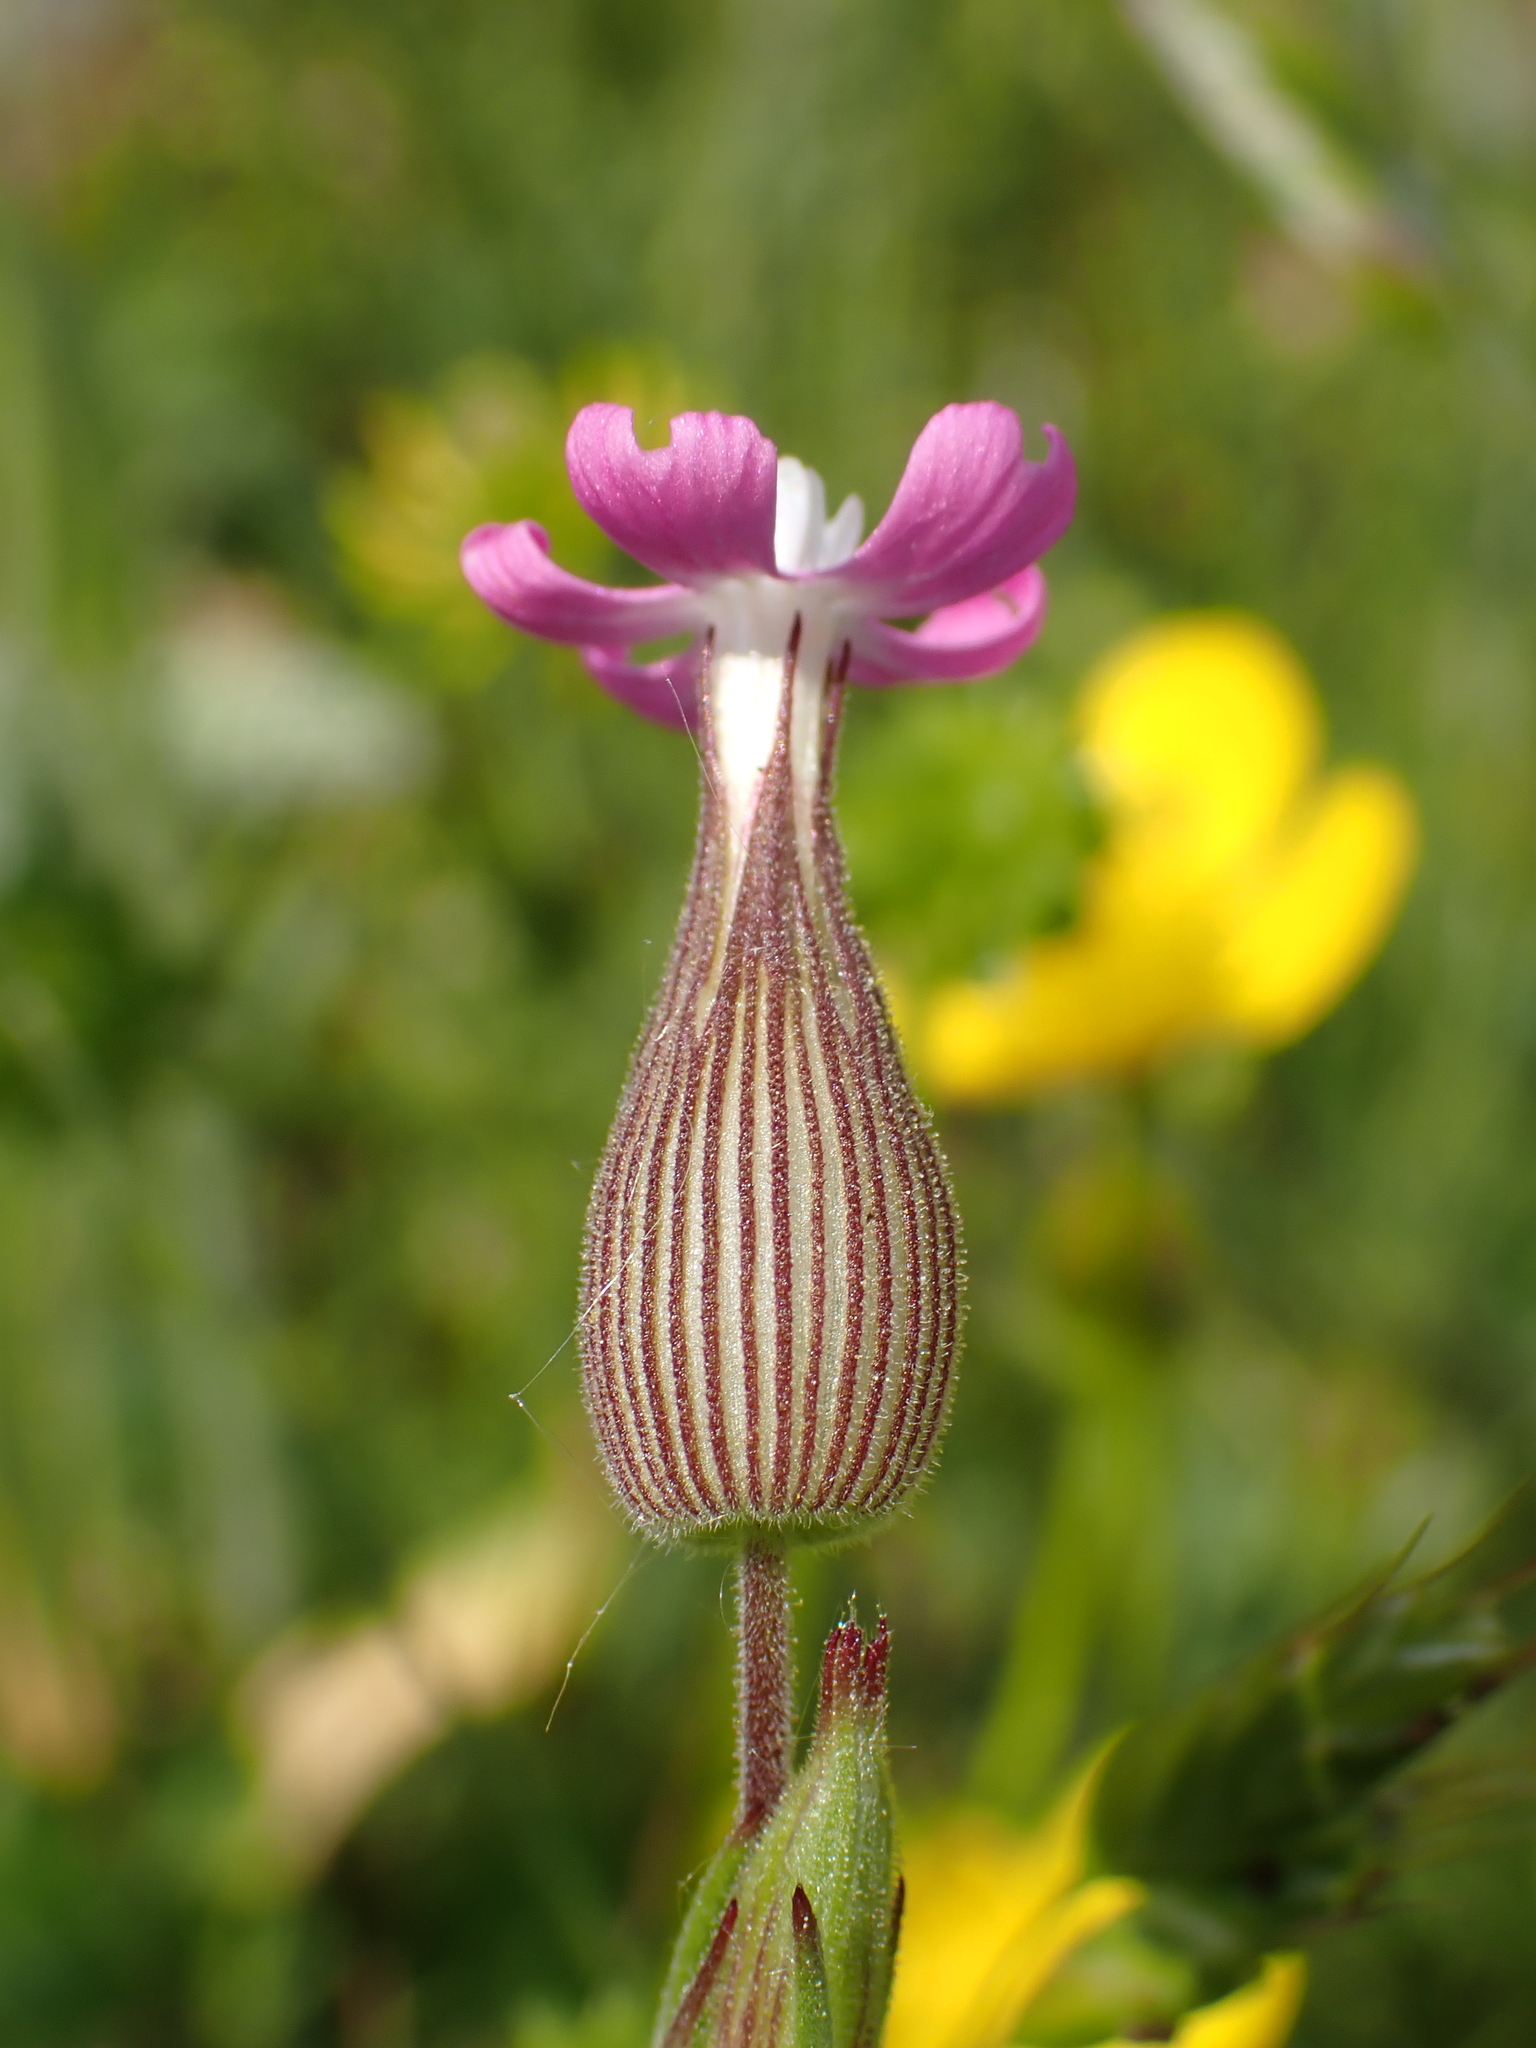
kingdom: Plantae
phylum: Tracheophyta
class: Magnoliopsida
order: Caryophyllales
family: Caryophyllaceae
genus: Silene
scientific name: Silene conica
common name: Sand catchfly
